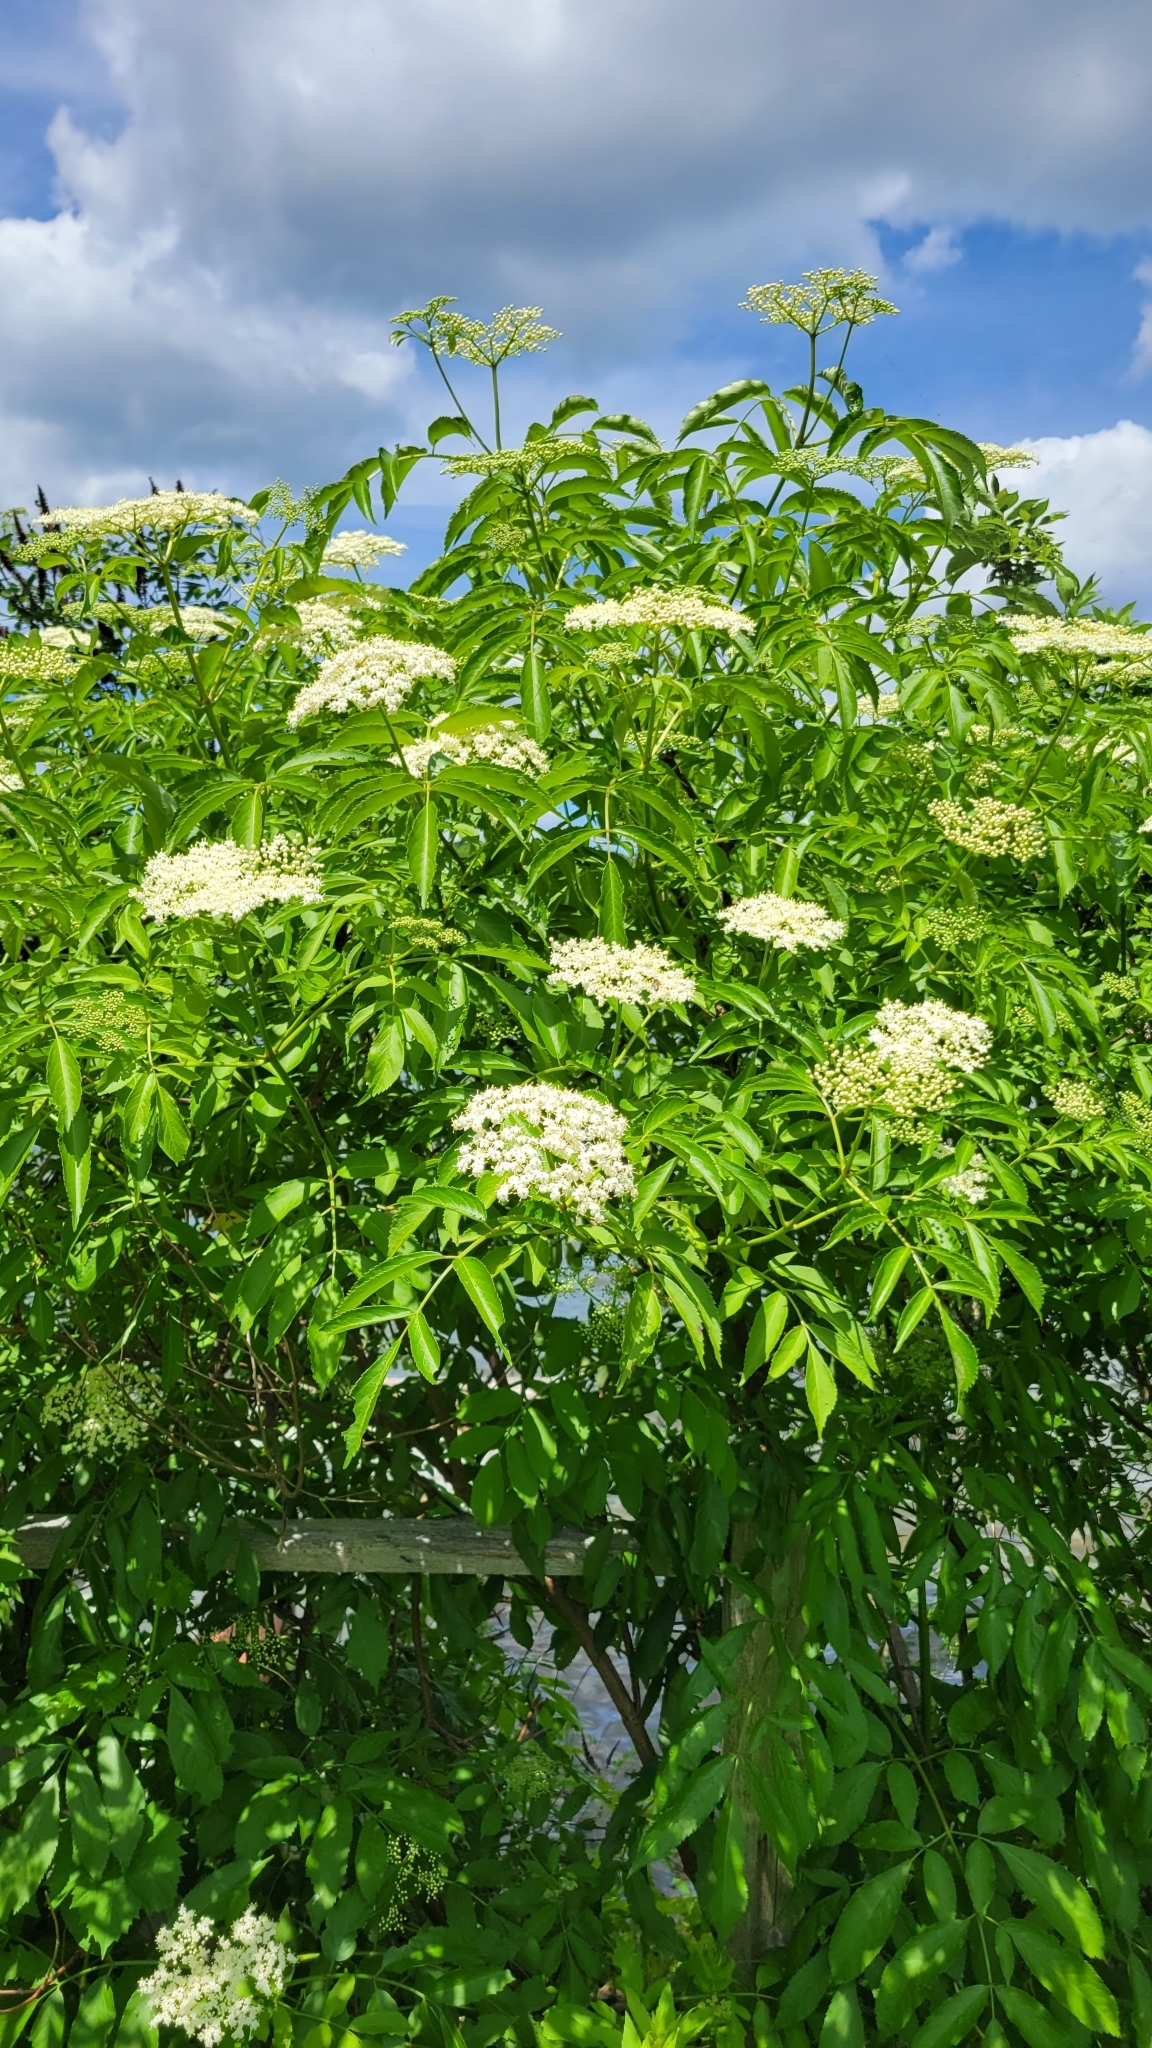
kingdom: Plantae
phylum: Tracheophyta
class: Magnoliopsida
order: Dipsacales
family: Viburnaceae
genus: Sambucus
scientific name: Sambucus canadensis
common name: American elder
